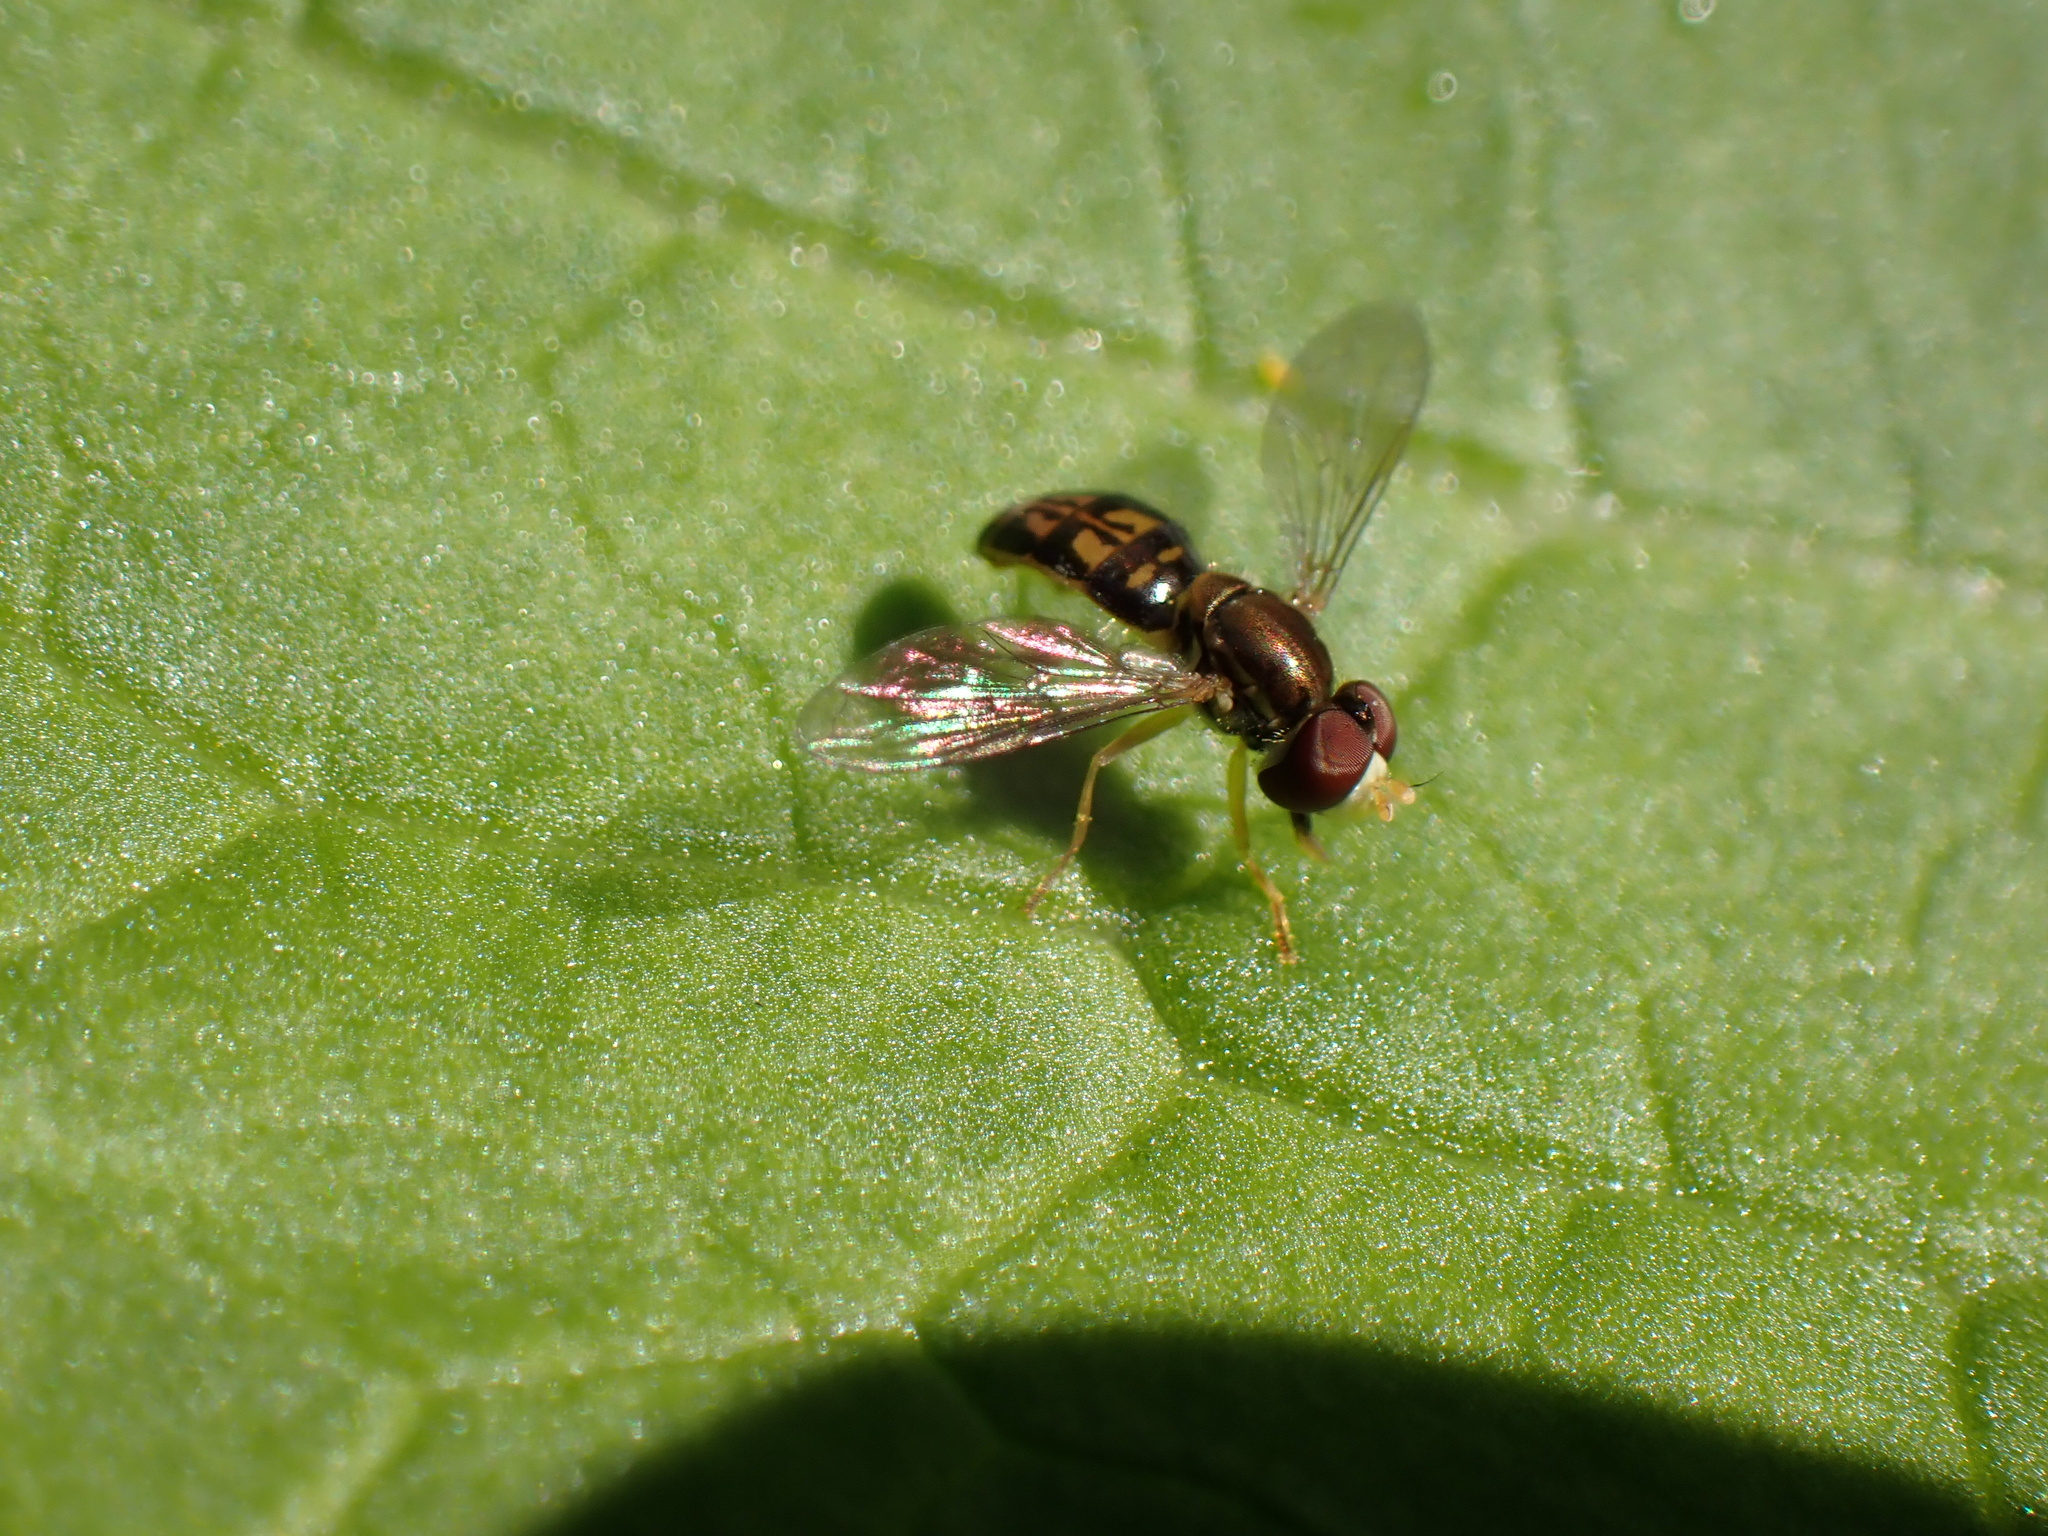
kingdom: Animalia
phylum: Arthropoda
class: Insecta
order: Diptera
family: Syrphidae
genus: Toxomerus
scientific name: Toxomerus marginatus
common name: Syrphid fly
